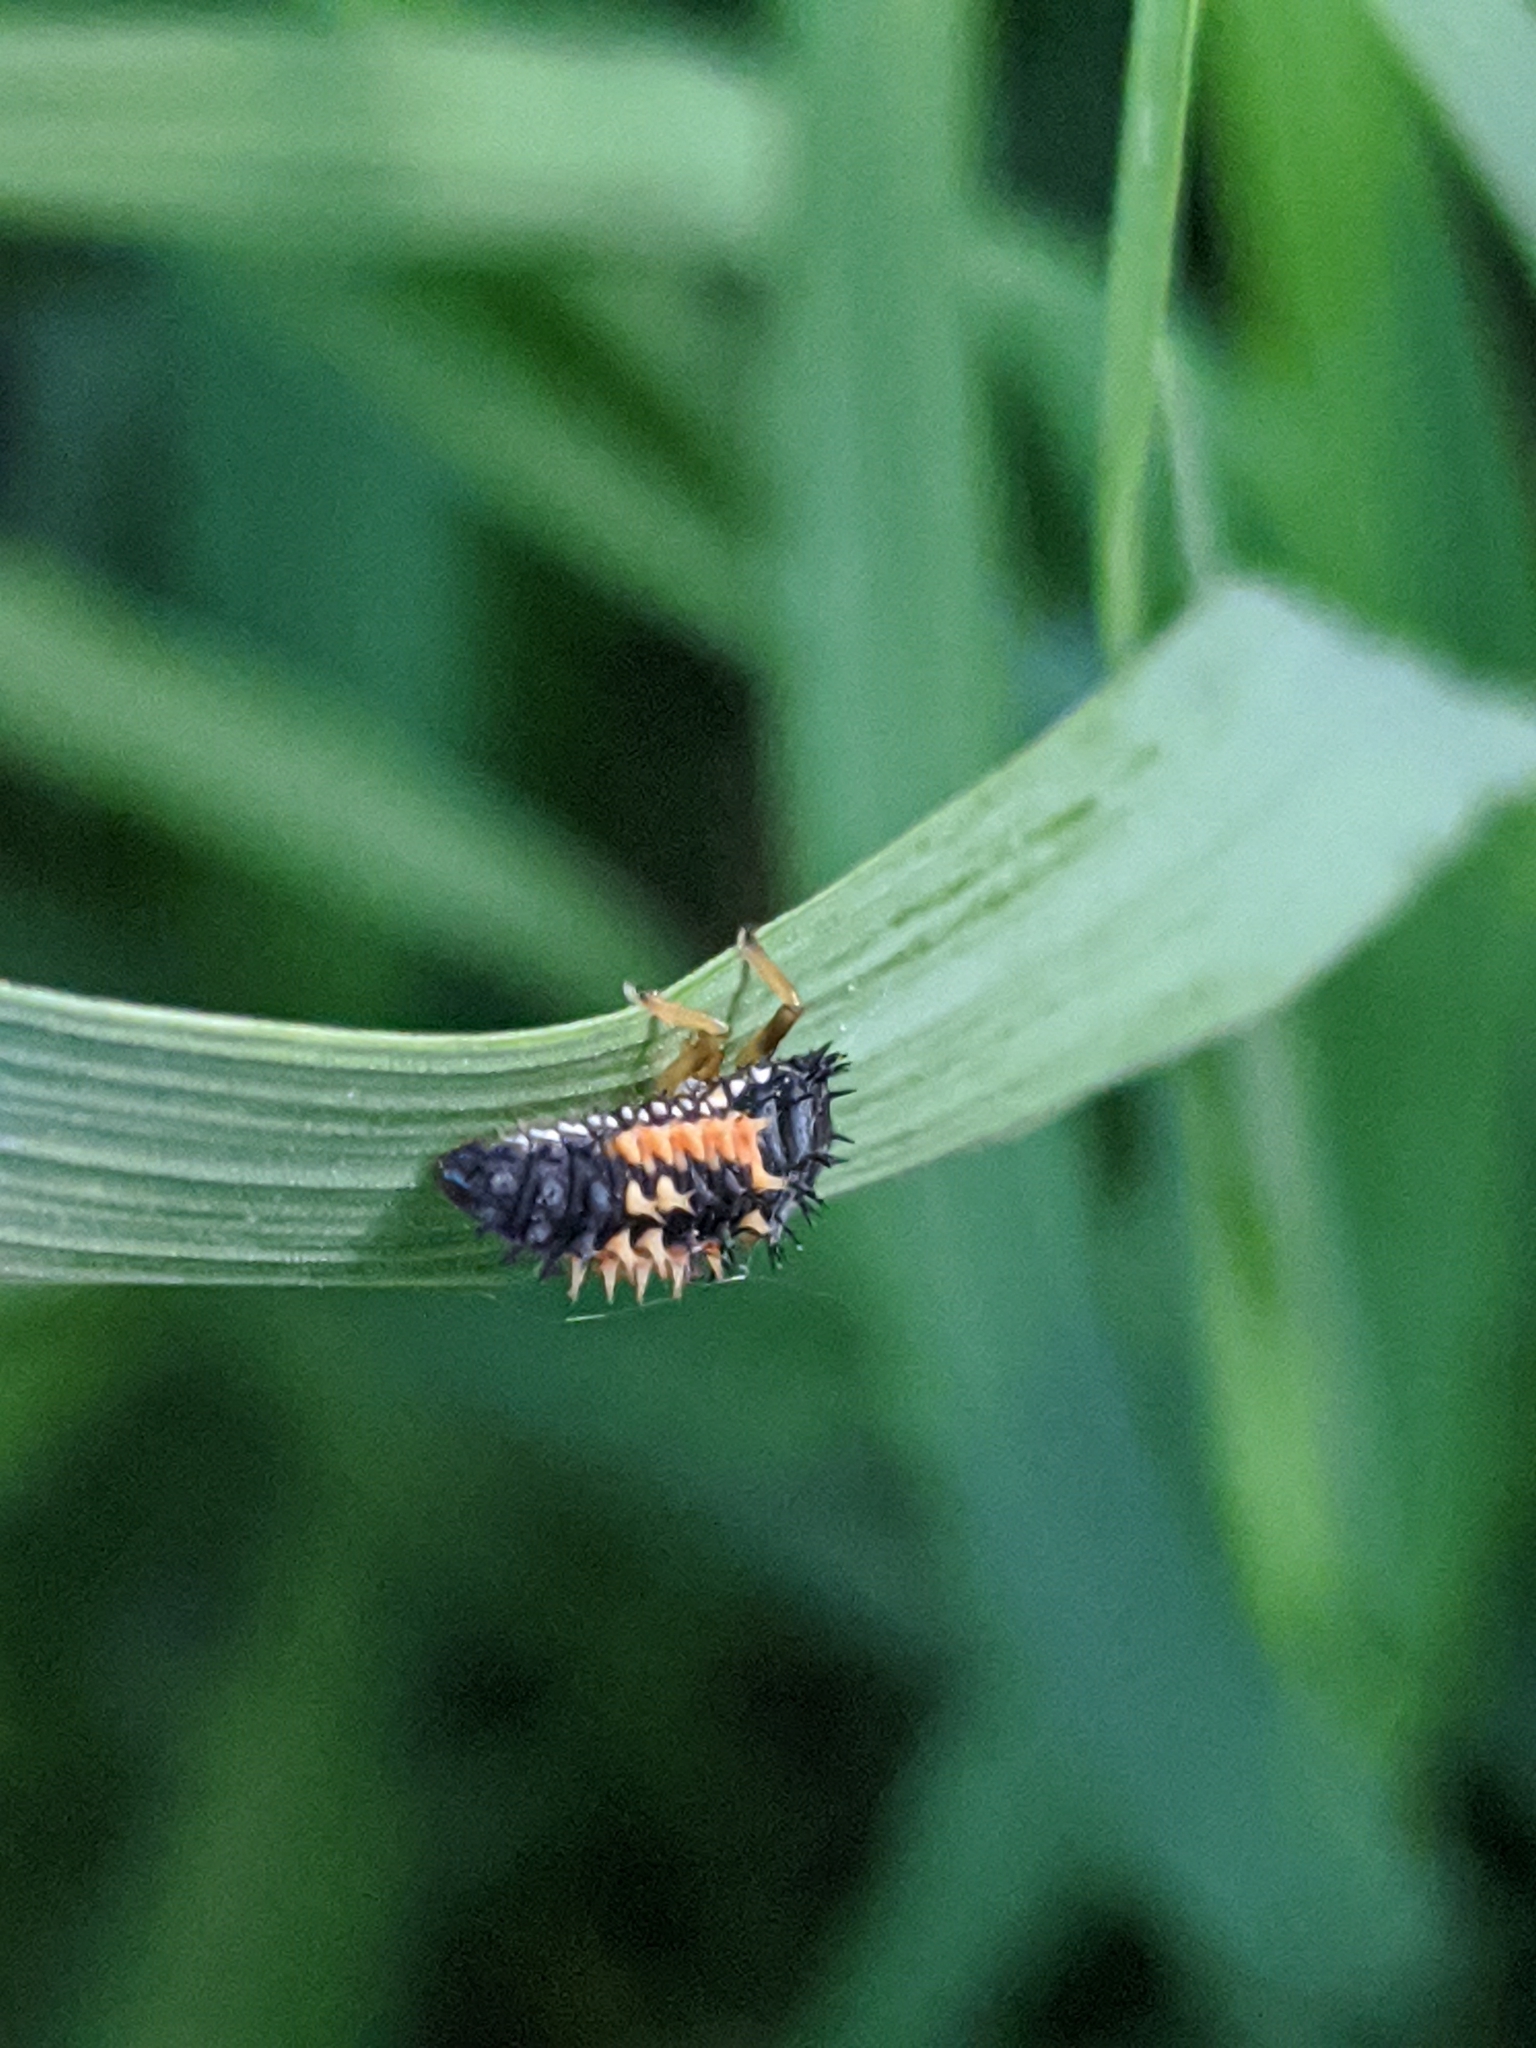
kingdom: Animalia
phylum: Arthropoda
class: Insecta
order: Coleoptera
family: Coccinellidae
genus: Harmonia
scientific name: Harmonia axyridis
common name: Harlequin ladybird
